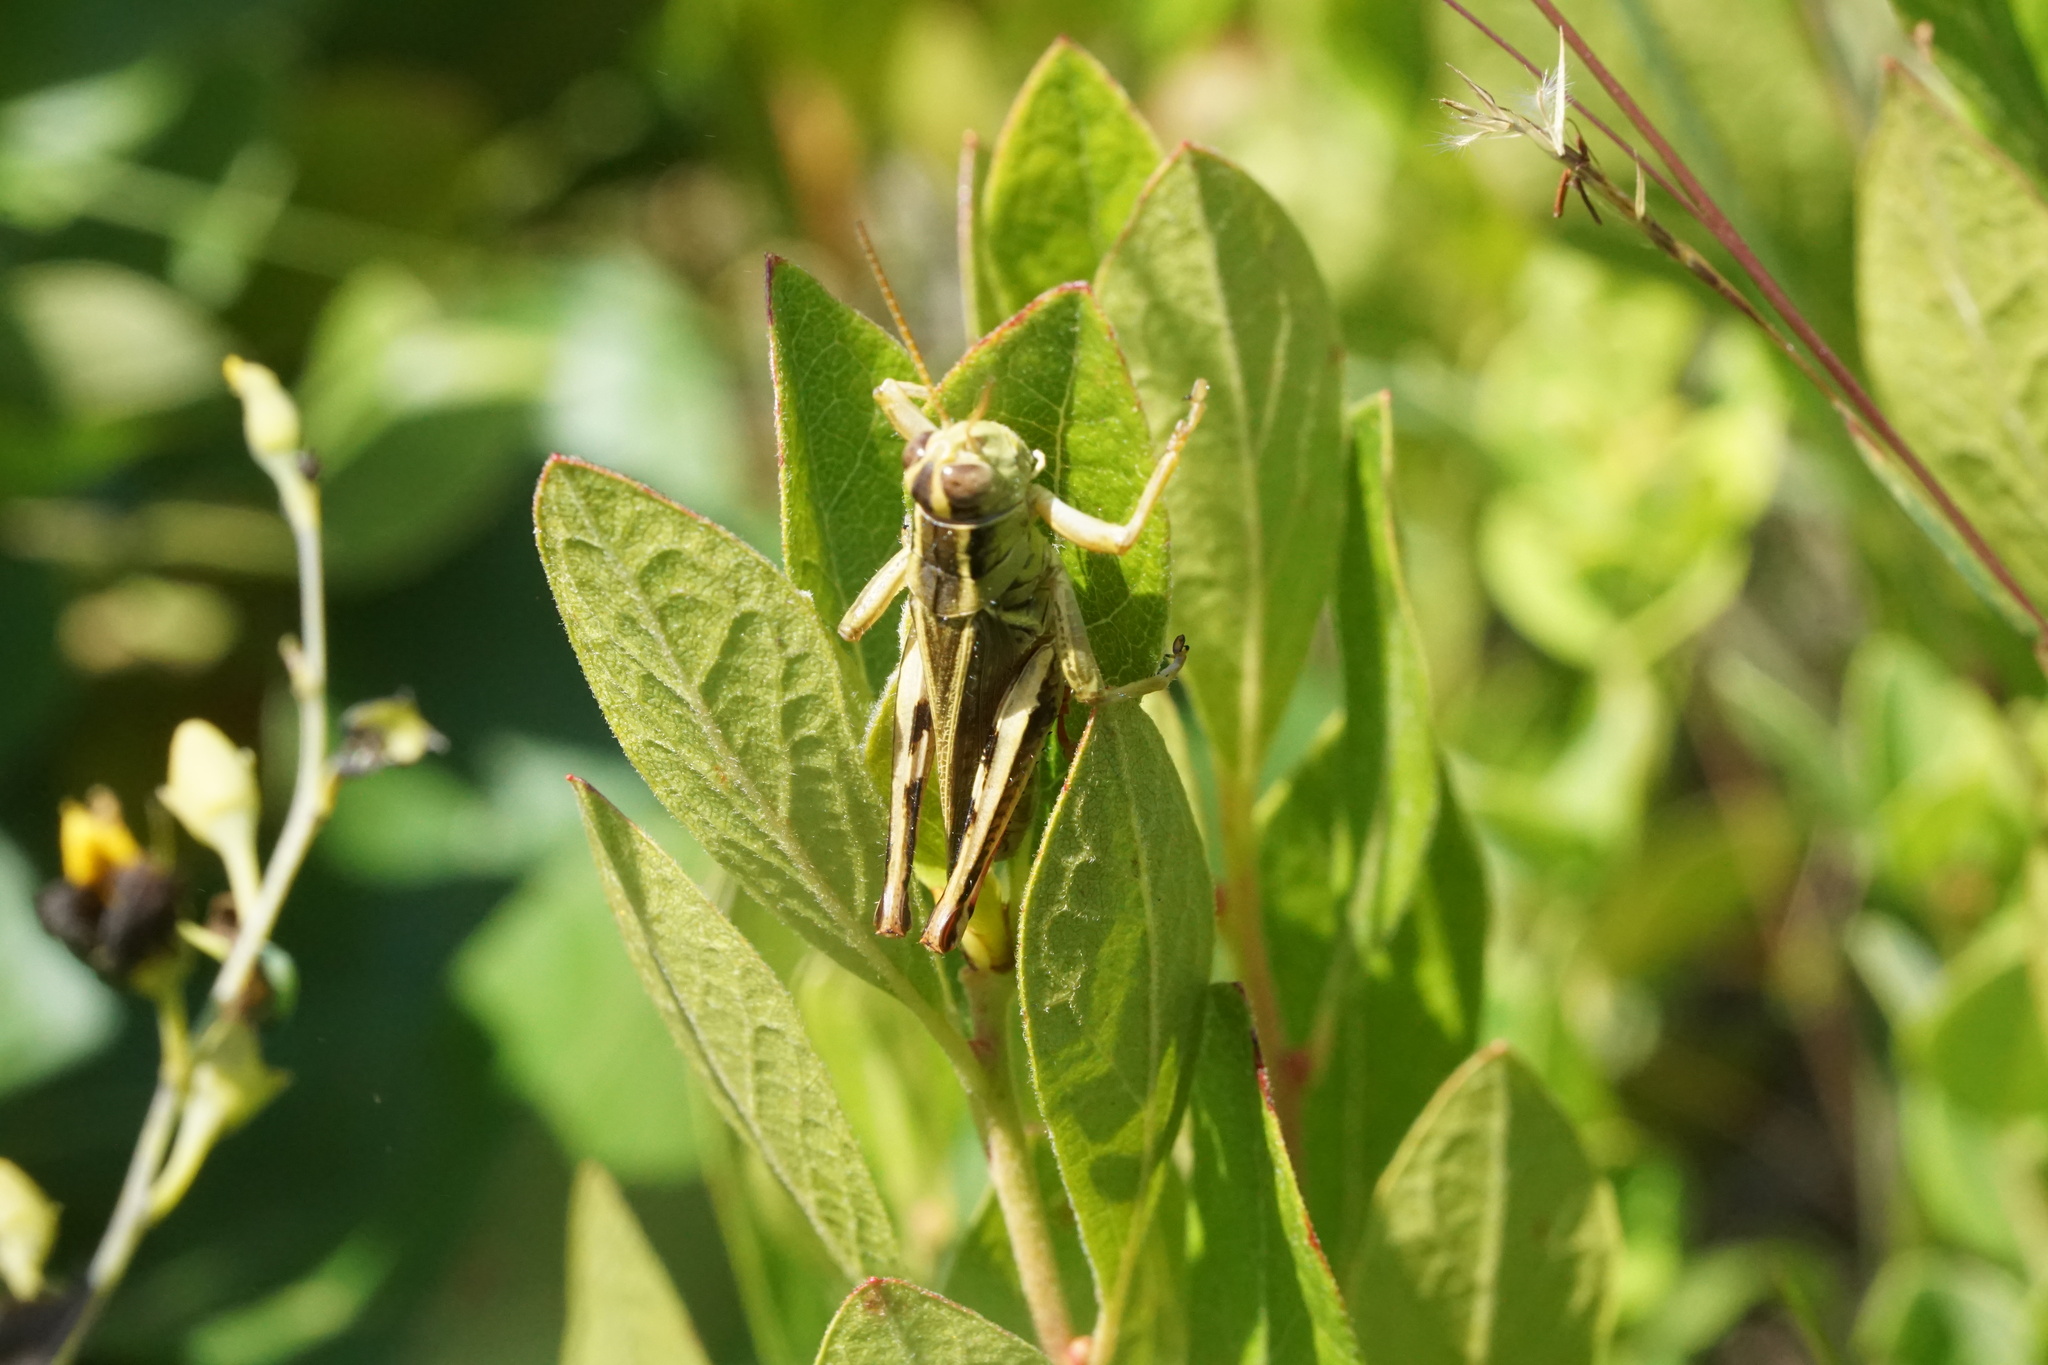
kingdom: Animalia
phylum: Arthropoda
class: Insecta
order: Orthoptera
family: Acrididae
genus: Melanoplus
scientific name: Melanoplus bivittatus
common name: Two-striped grasshopper
